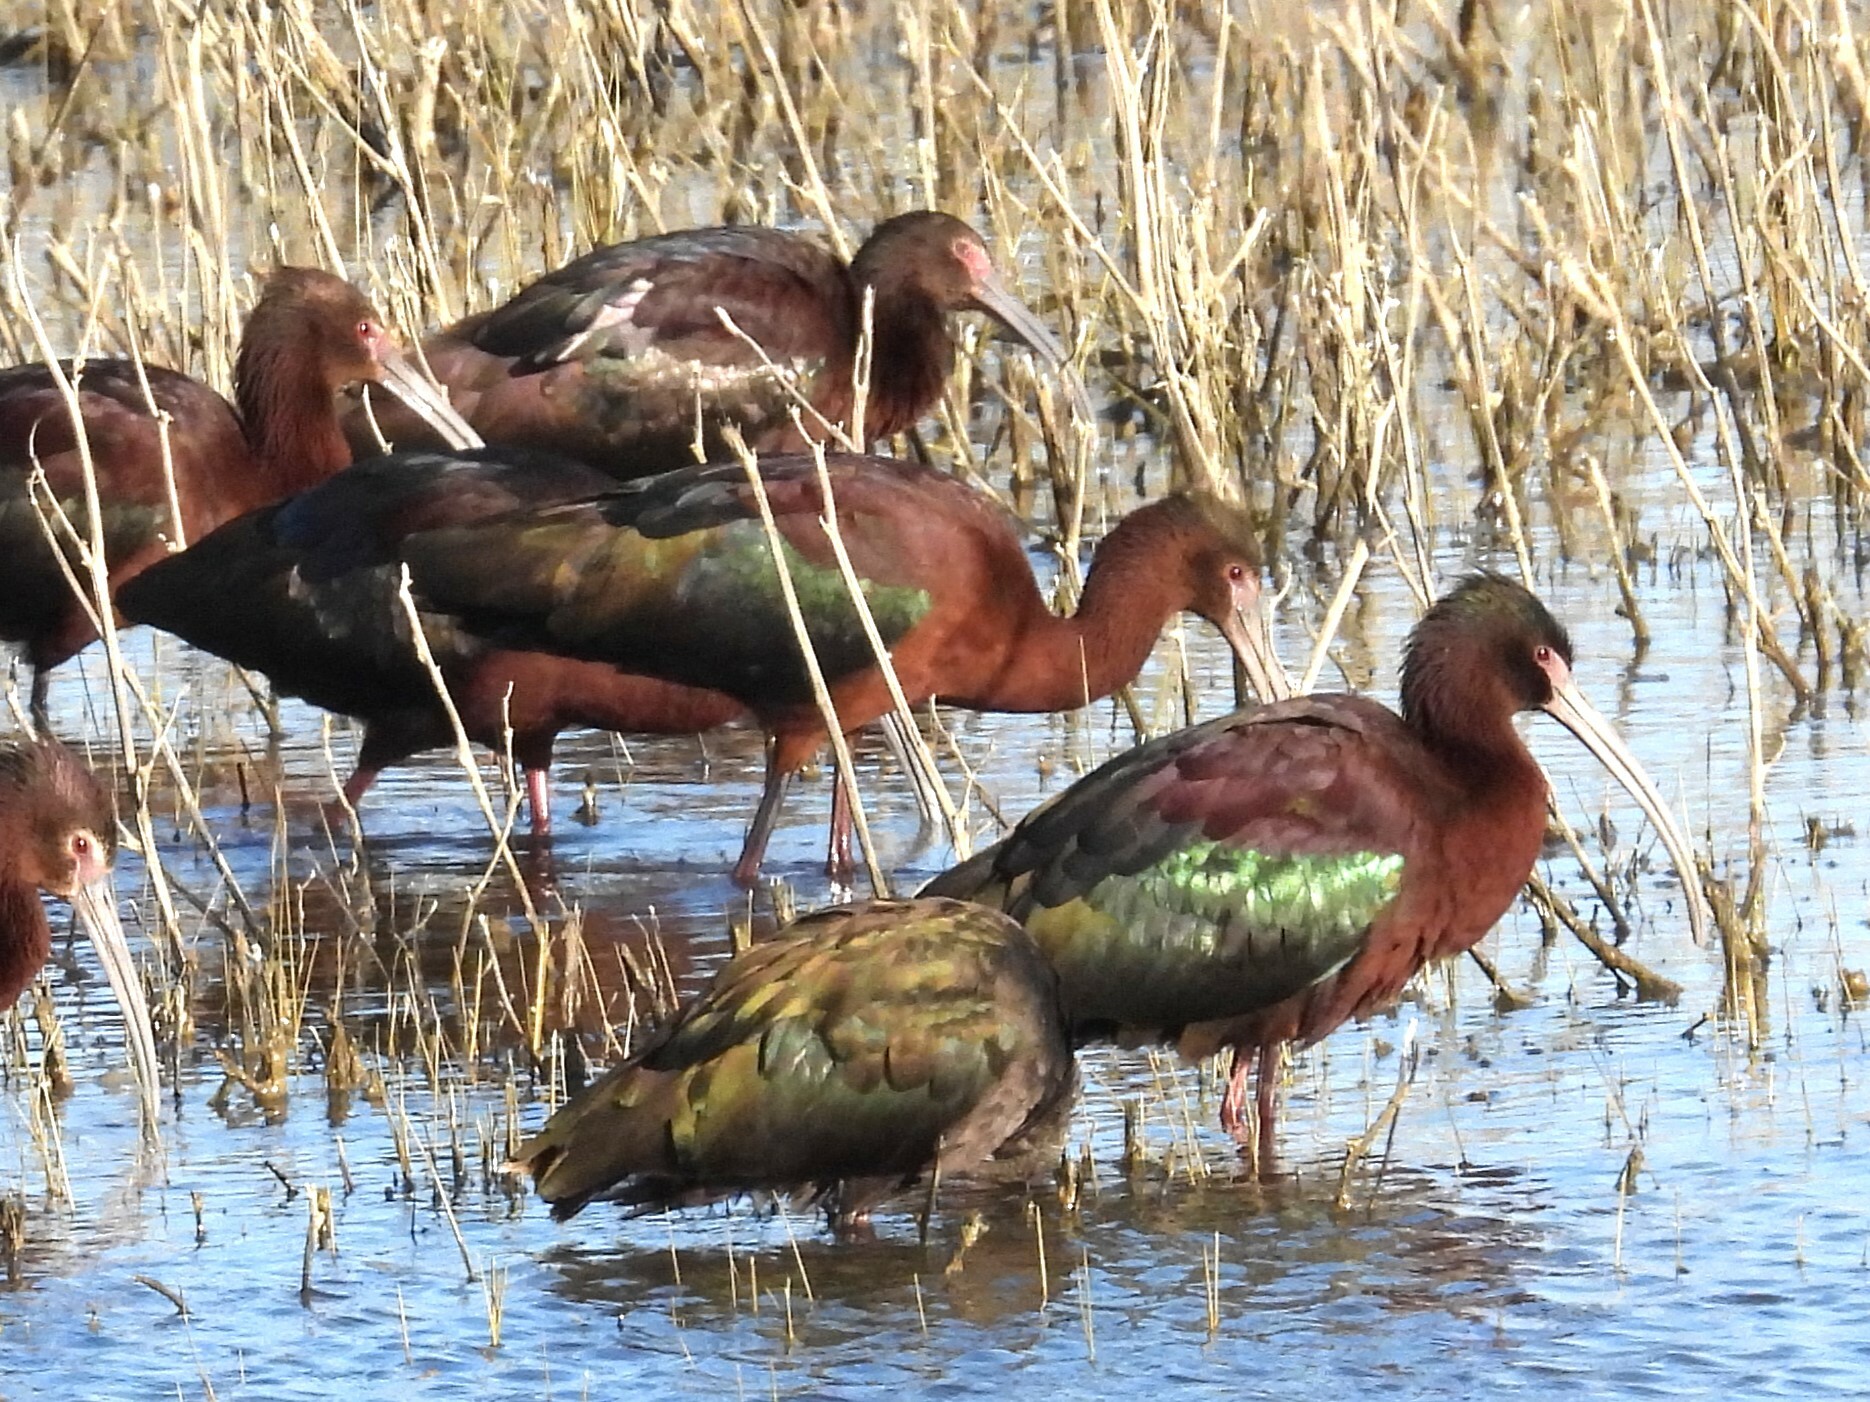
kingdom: Animalia
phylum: Chordata
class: Aves
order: Pelecaniformes
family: Threskiornithidae
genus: Plegadis
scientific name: Plegadis chihi
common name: White-faced ibis
